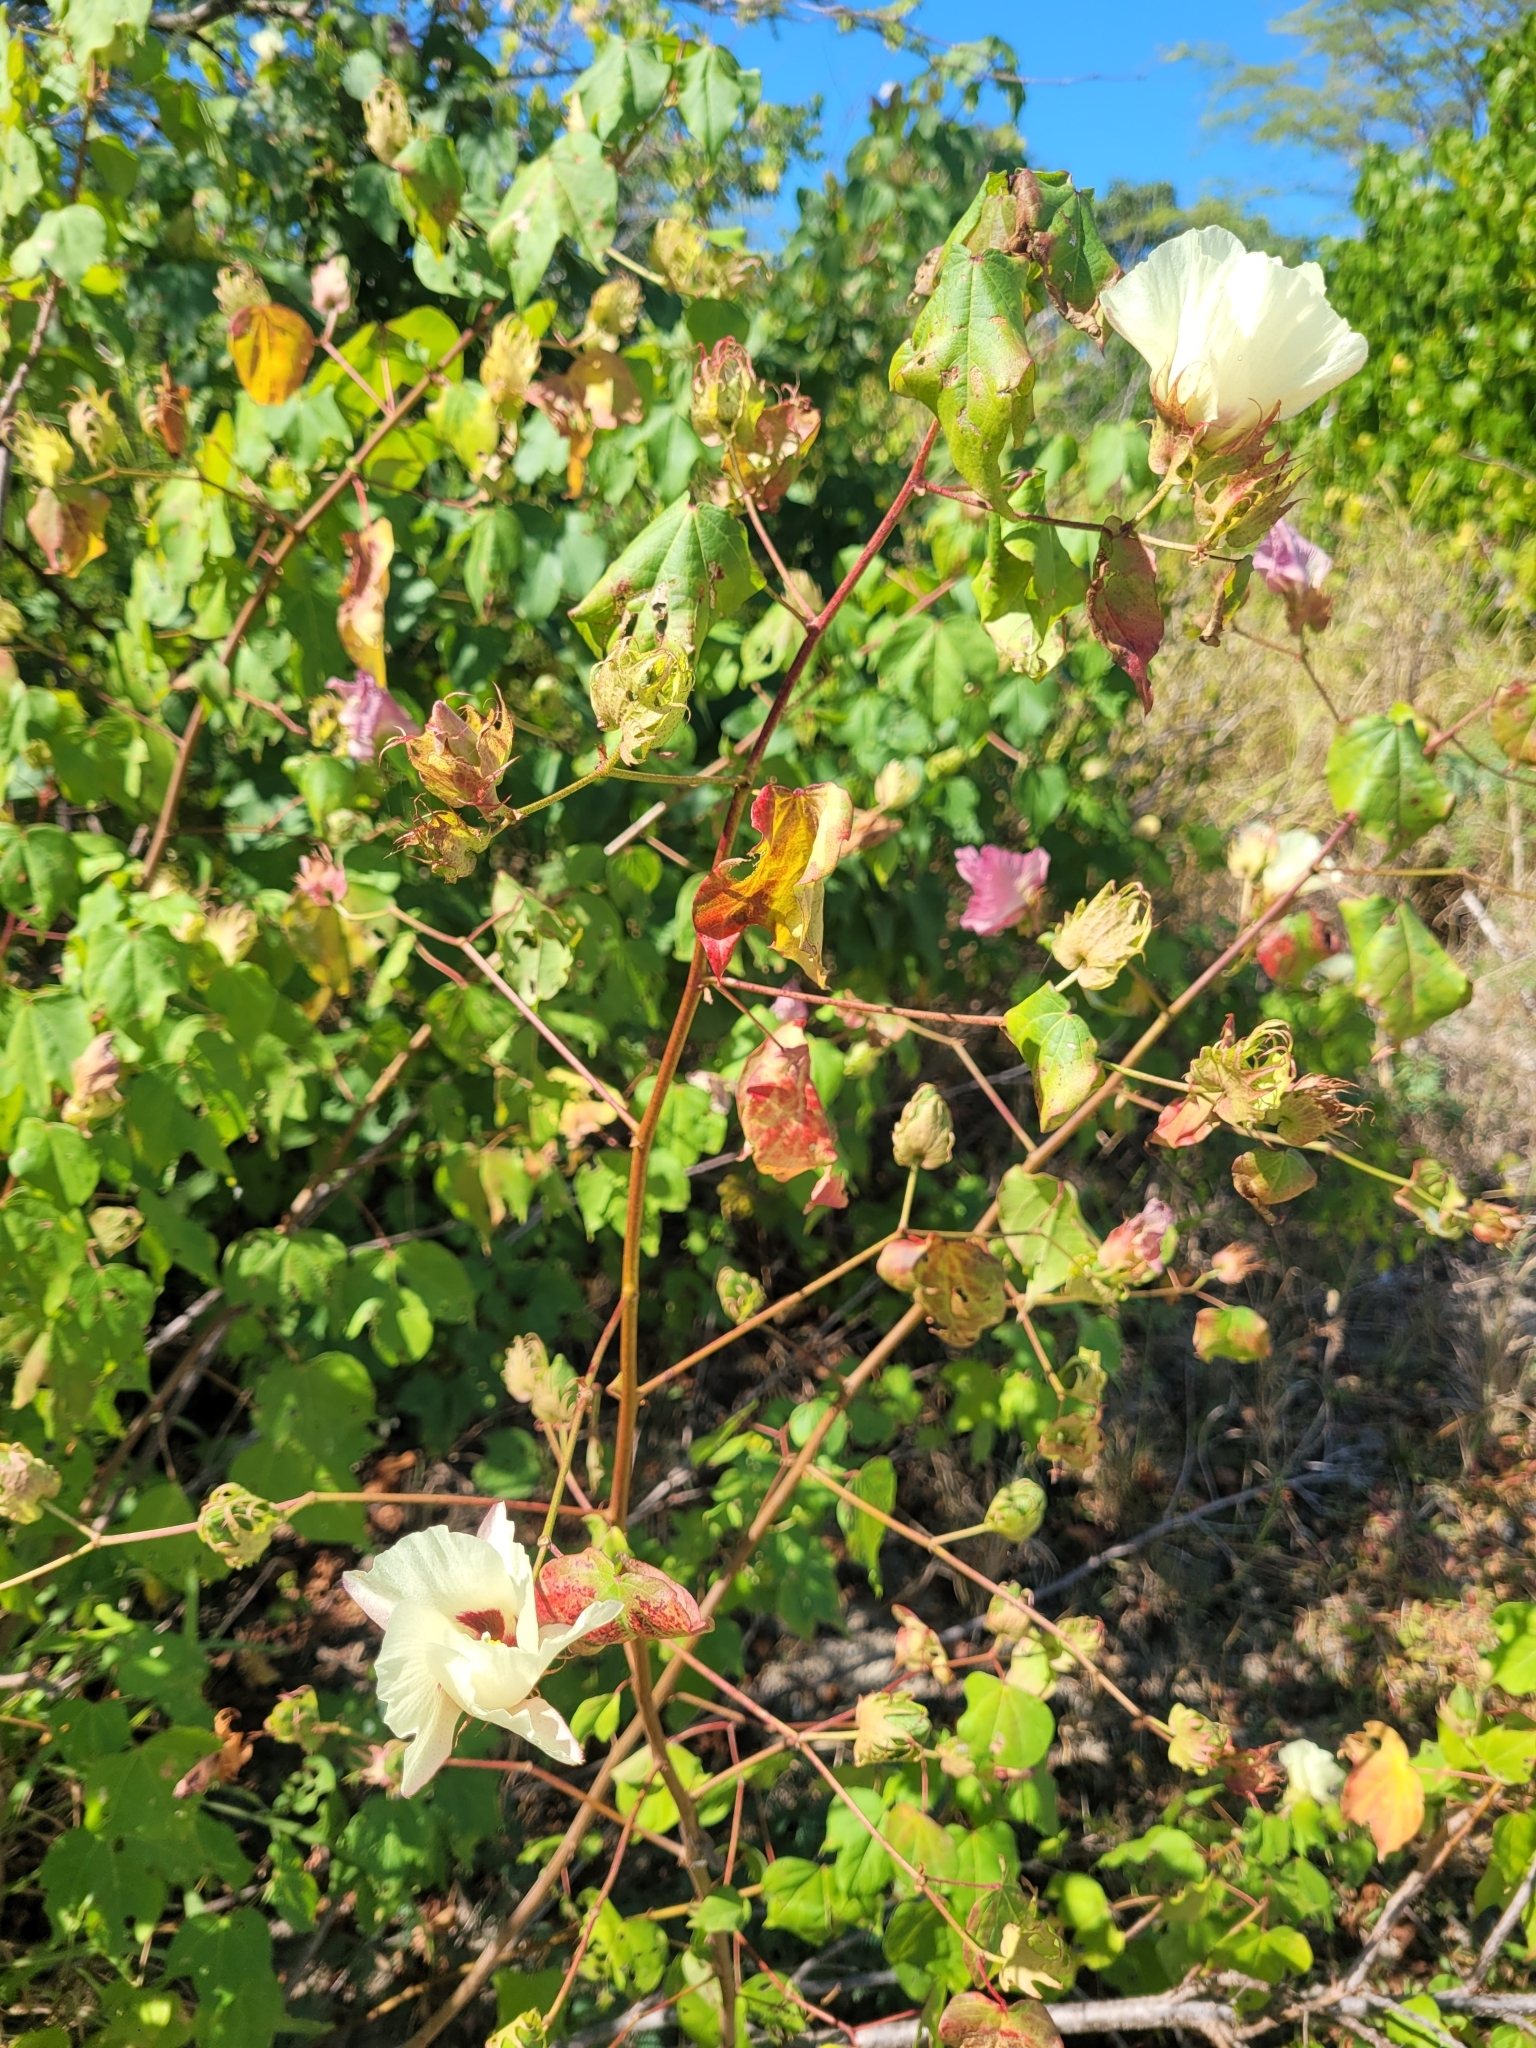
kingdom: Plantae
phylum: Tracheophyta
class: Magnoliopsida
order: Malvales
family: Malvaceae
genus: Gossypium
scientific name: Gossypium hirsutum
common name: Cotton
